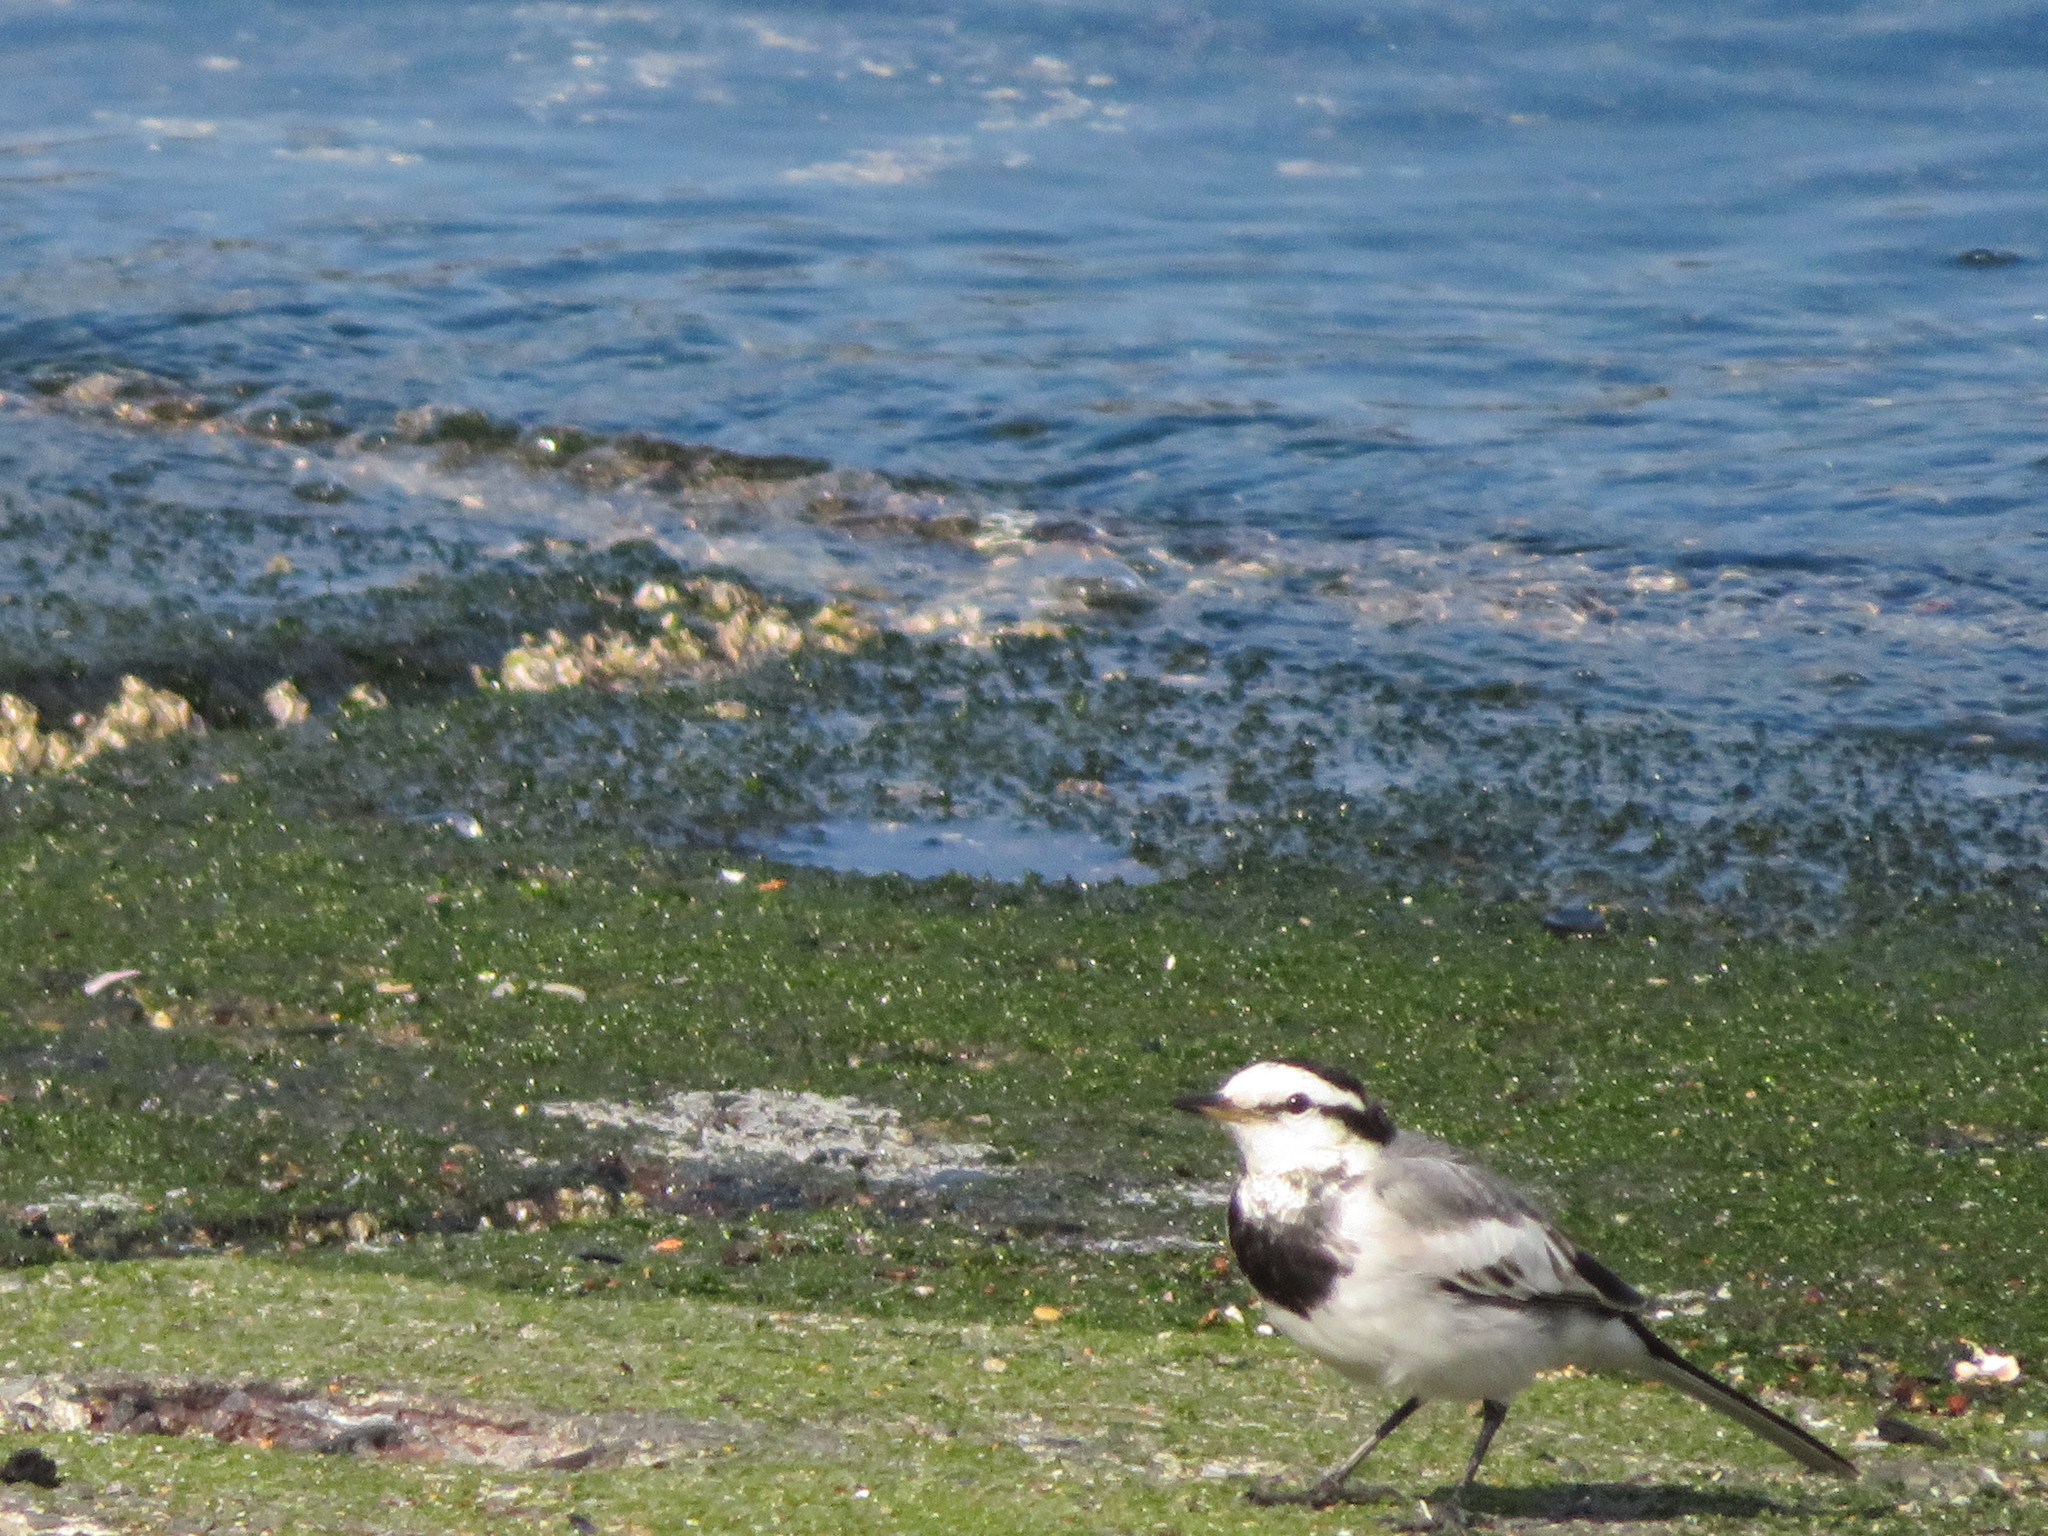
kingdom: Animalia
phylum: Chordata
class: Aves
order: Passeriformes
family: Motacillidae
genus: Motacilla
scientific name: Motacilla alba
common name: White wagtail
